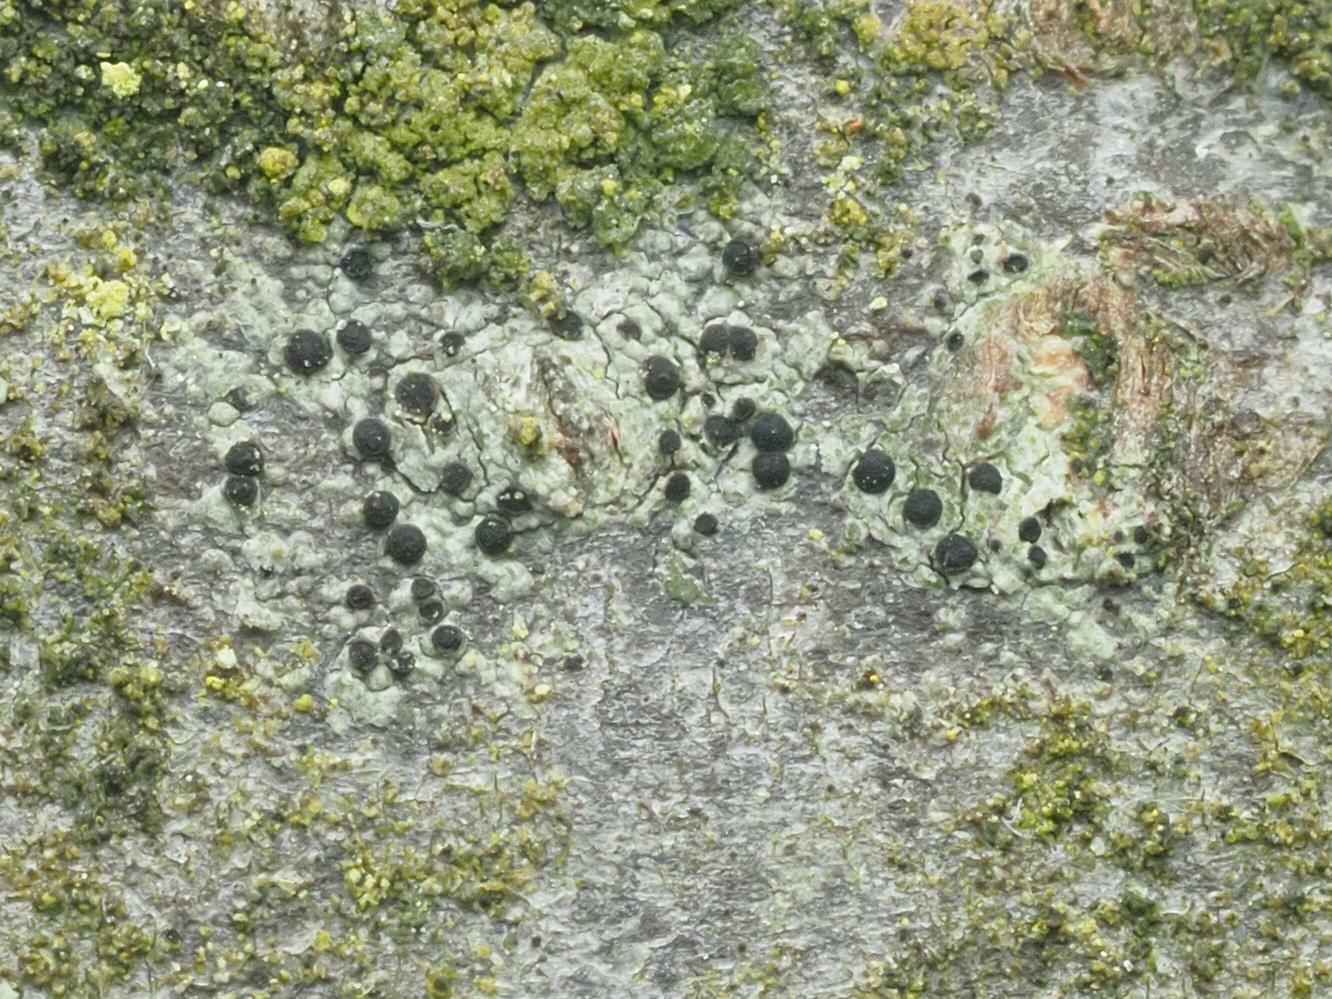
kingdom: Fungi
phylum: Ascomycota
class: Lecanoromycetes
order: Lecanorales
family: Lecanoraceae
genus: Lecidella
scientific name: Lecidella elaeochroma
